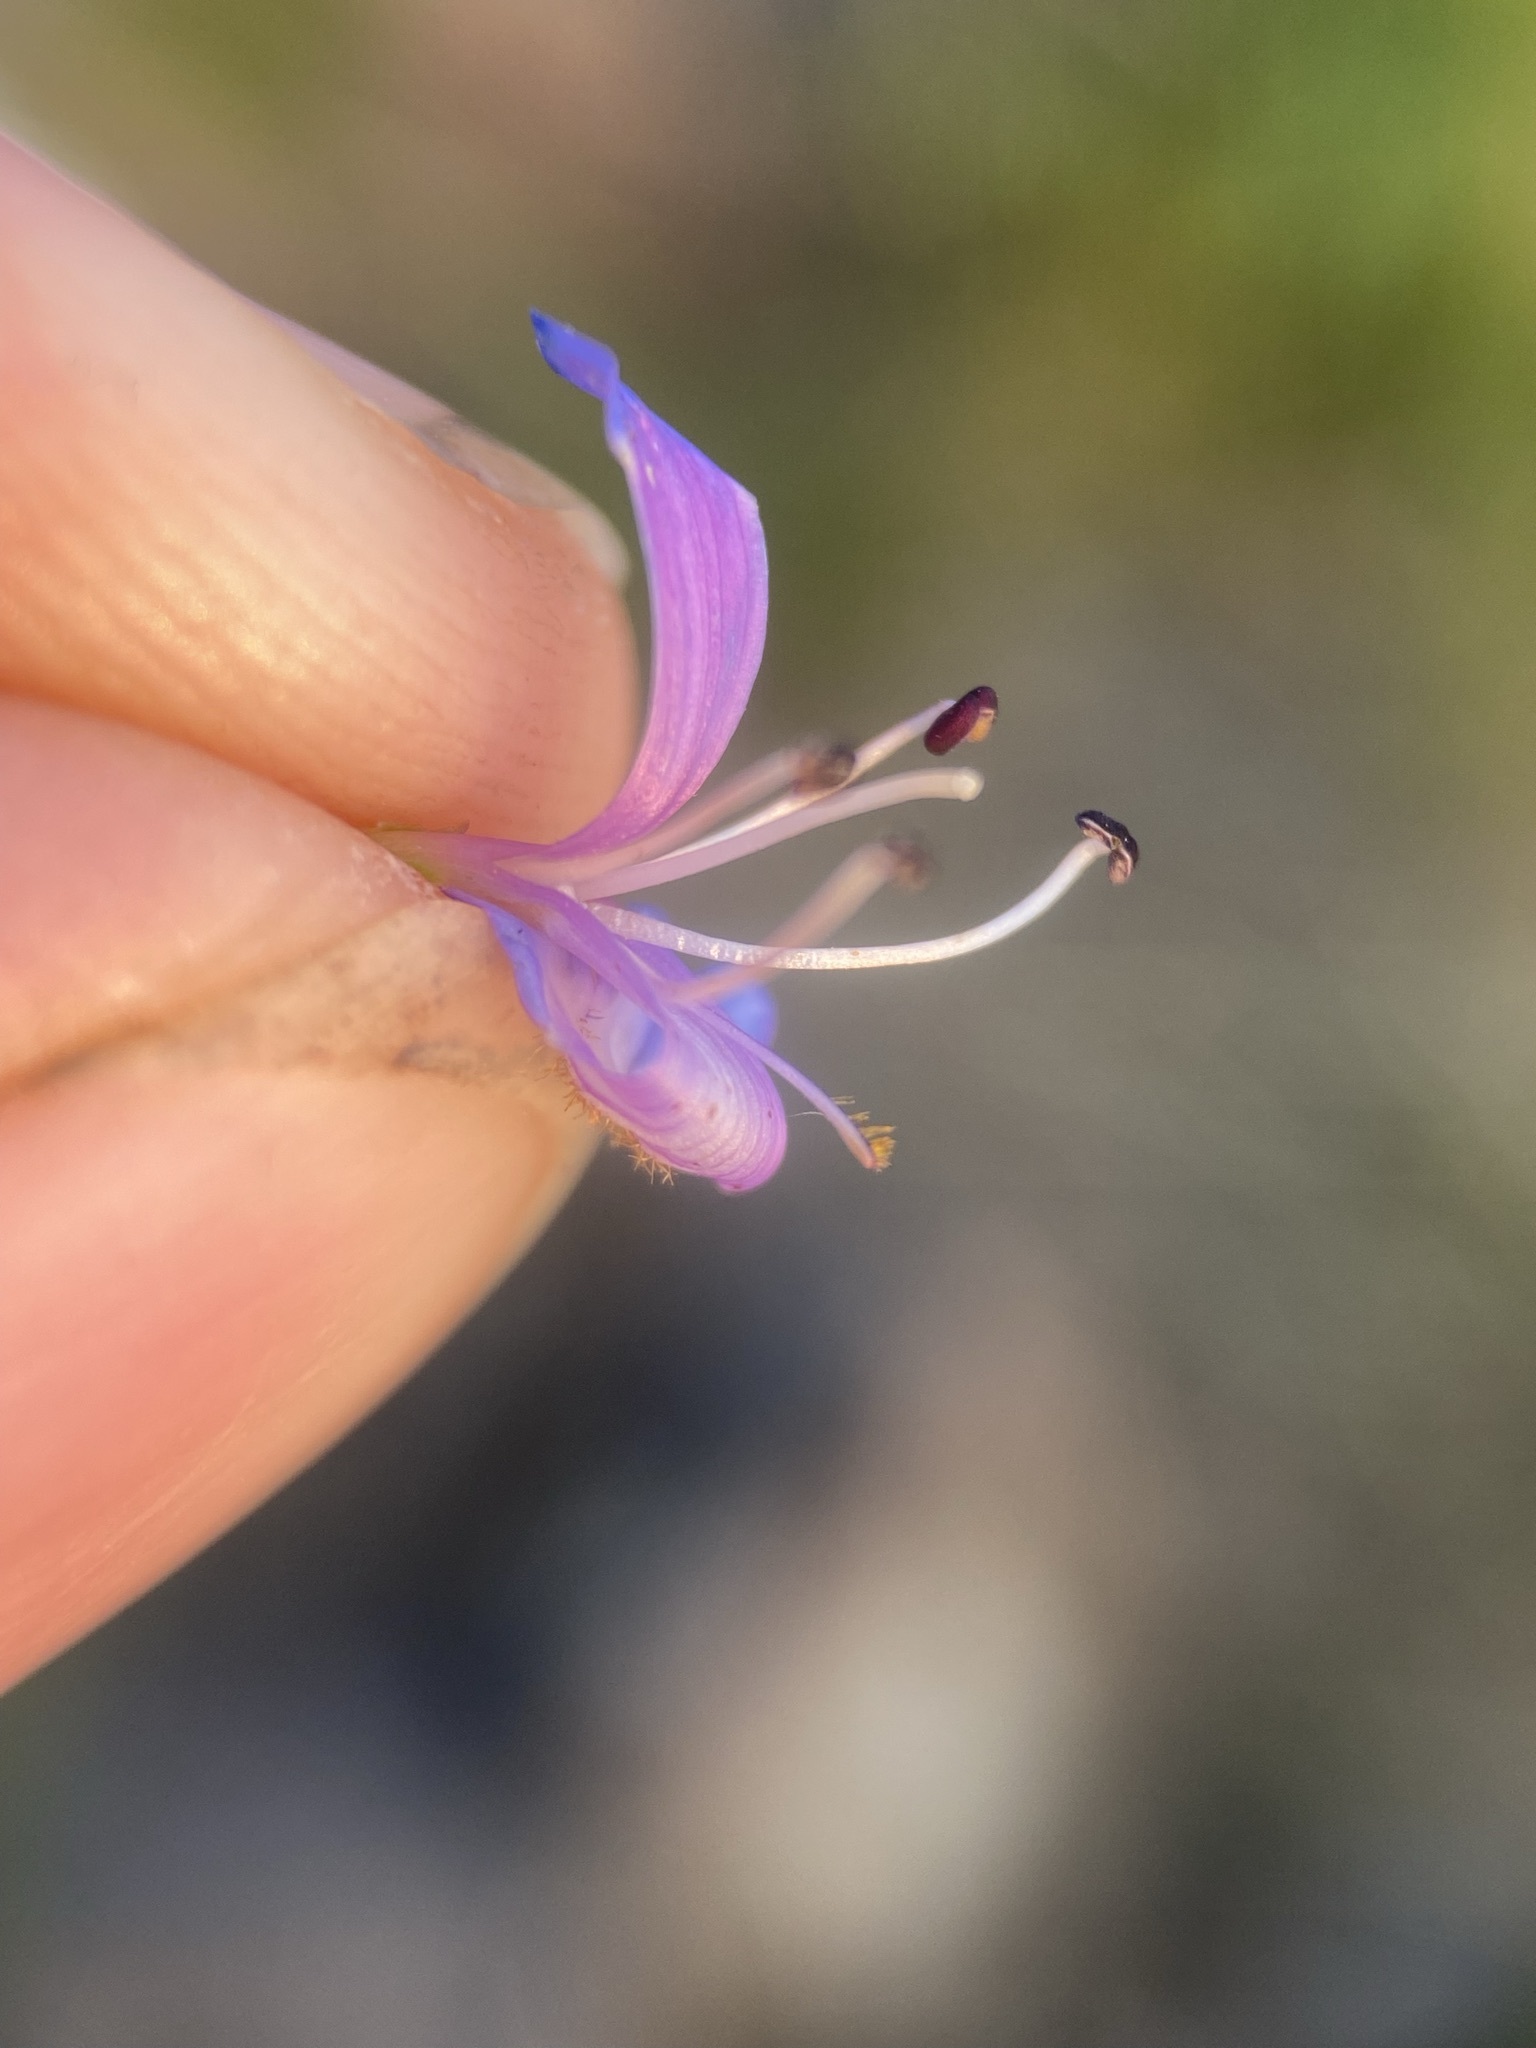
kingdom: Plantae
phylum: Tracheophyta
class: Magnoliopsida
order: Lamiales
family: Plantaginaceae
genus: Penstemon
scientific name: Penstemon rydbergii
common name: Rydberg's beardtongue
